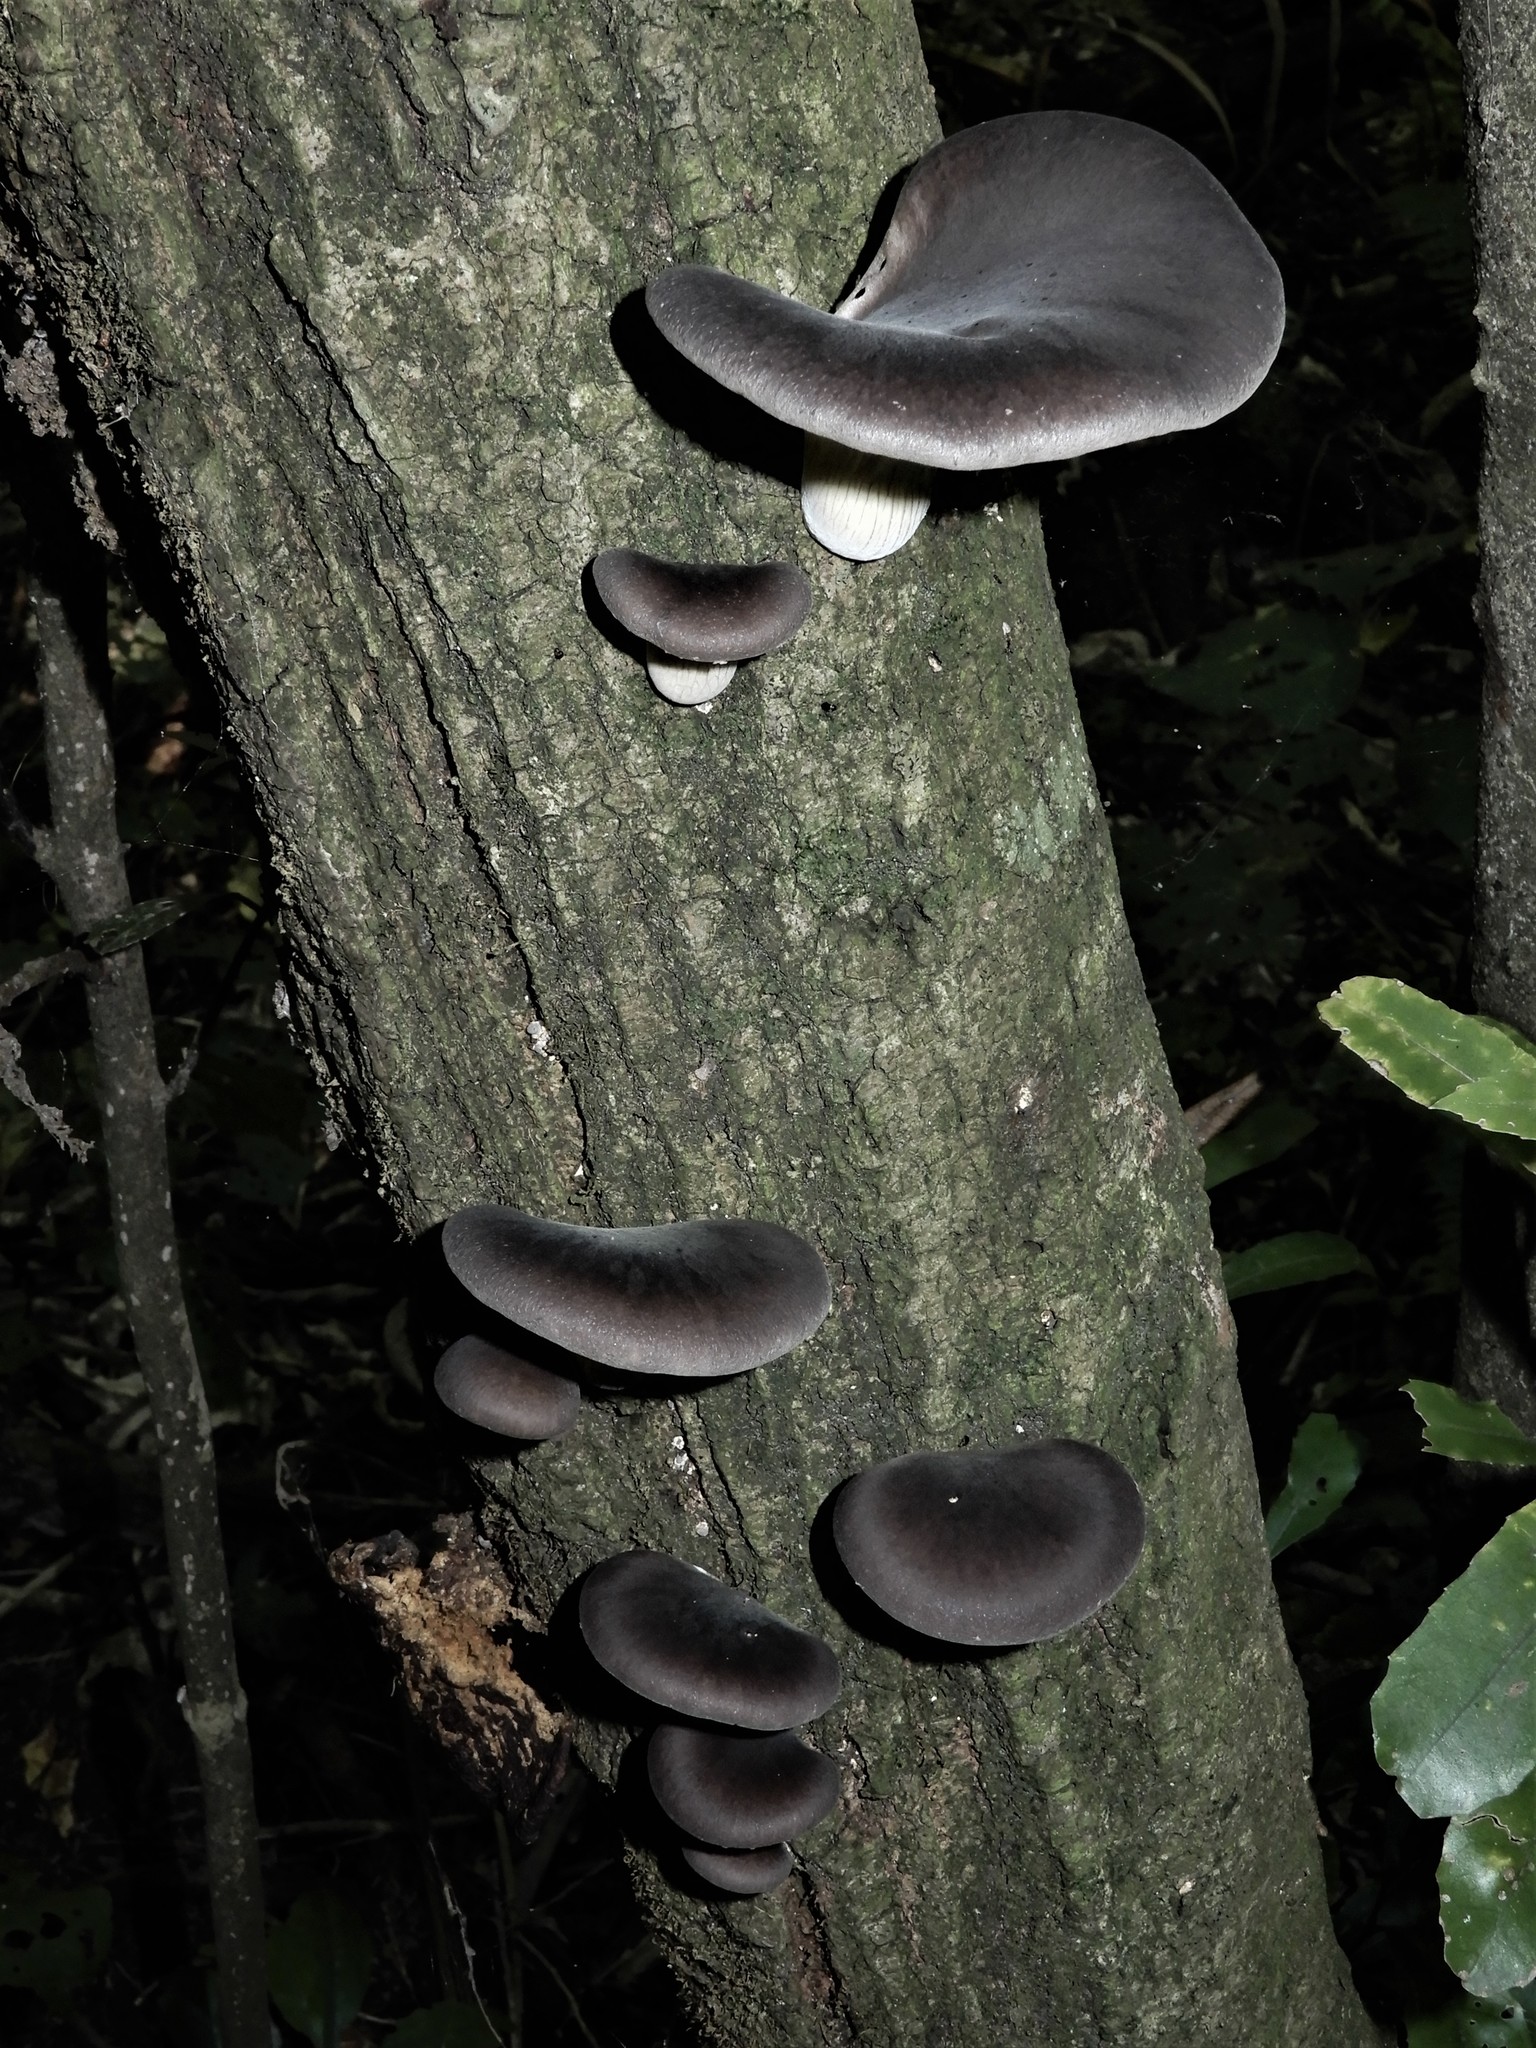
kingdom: Fungi
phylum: Basidiomycota
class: Agaricomycetes
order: Agaricales
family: Pleurotaceae
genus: Pleurotus
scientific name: Pleurotus australis
